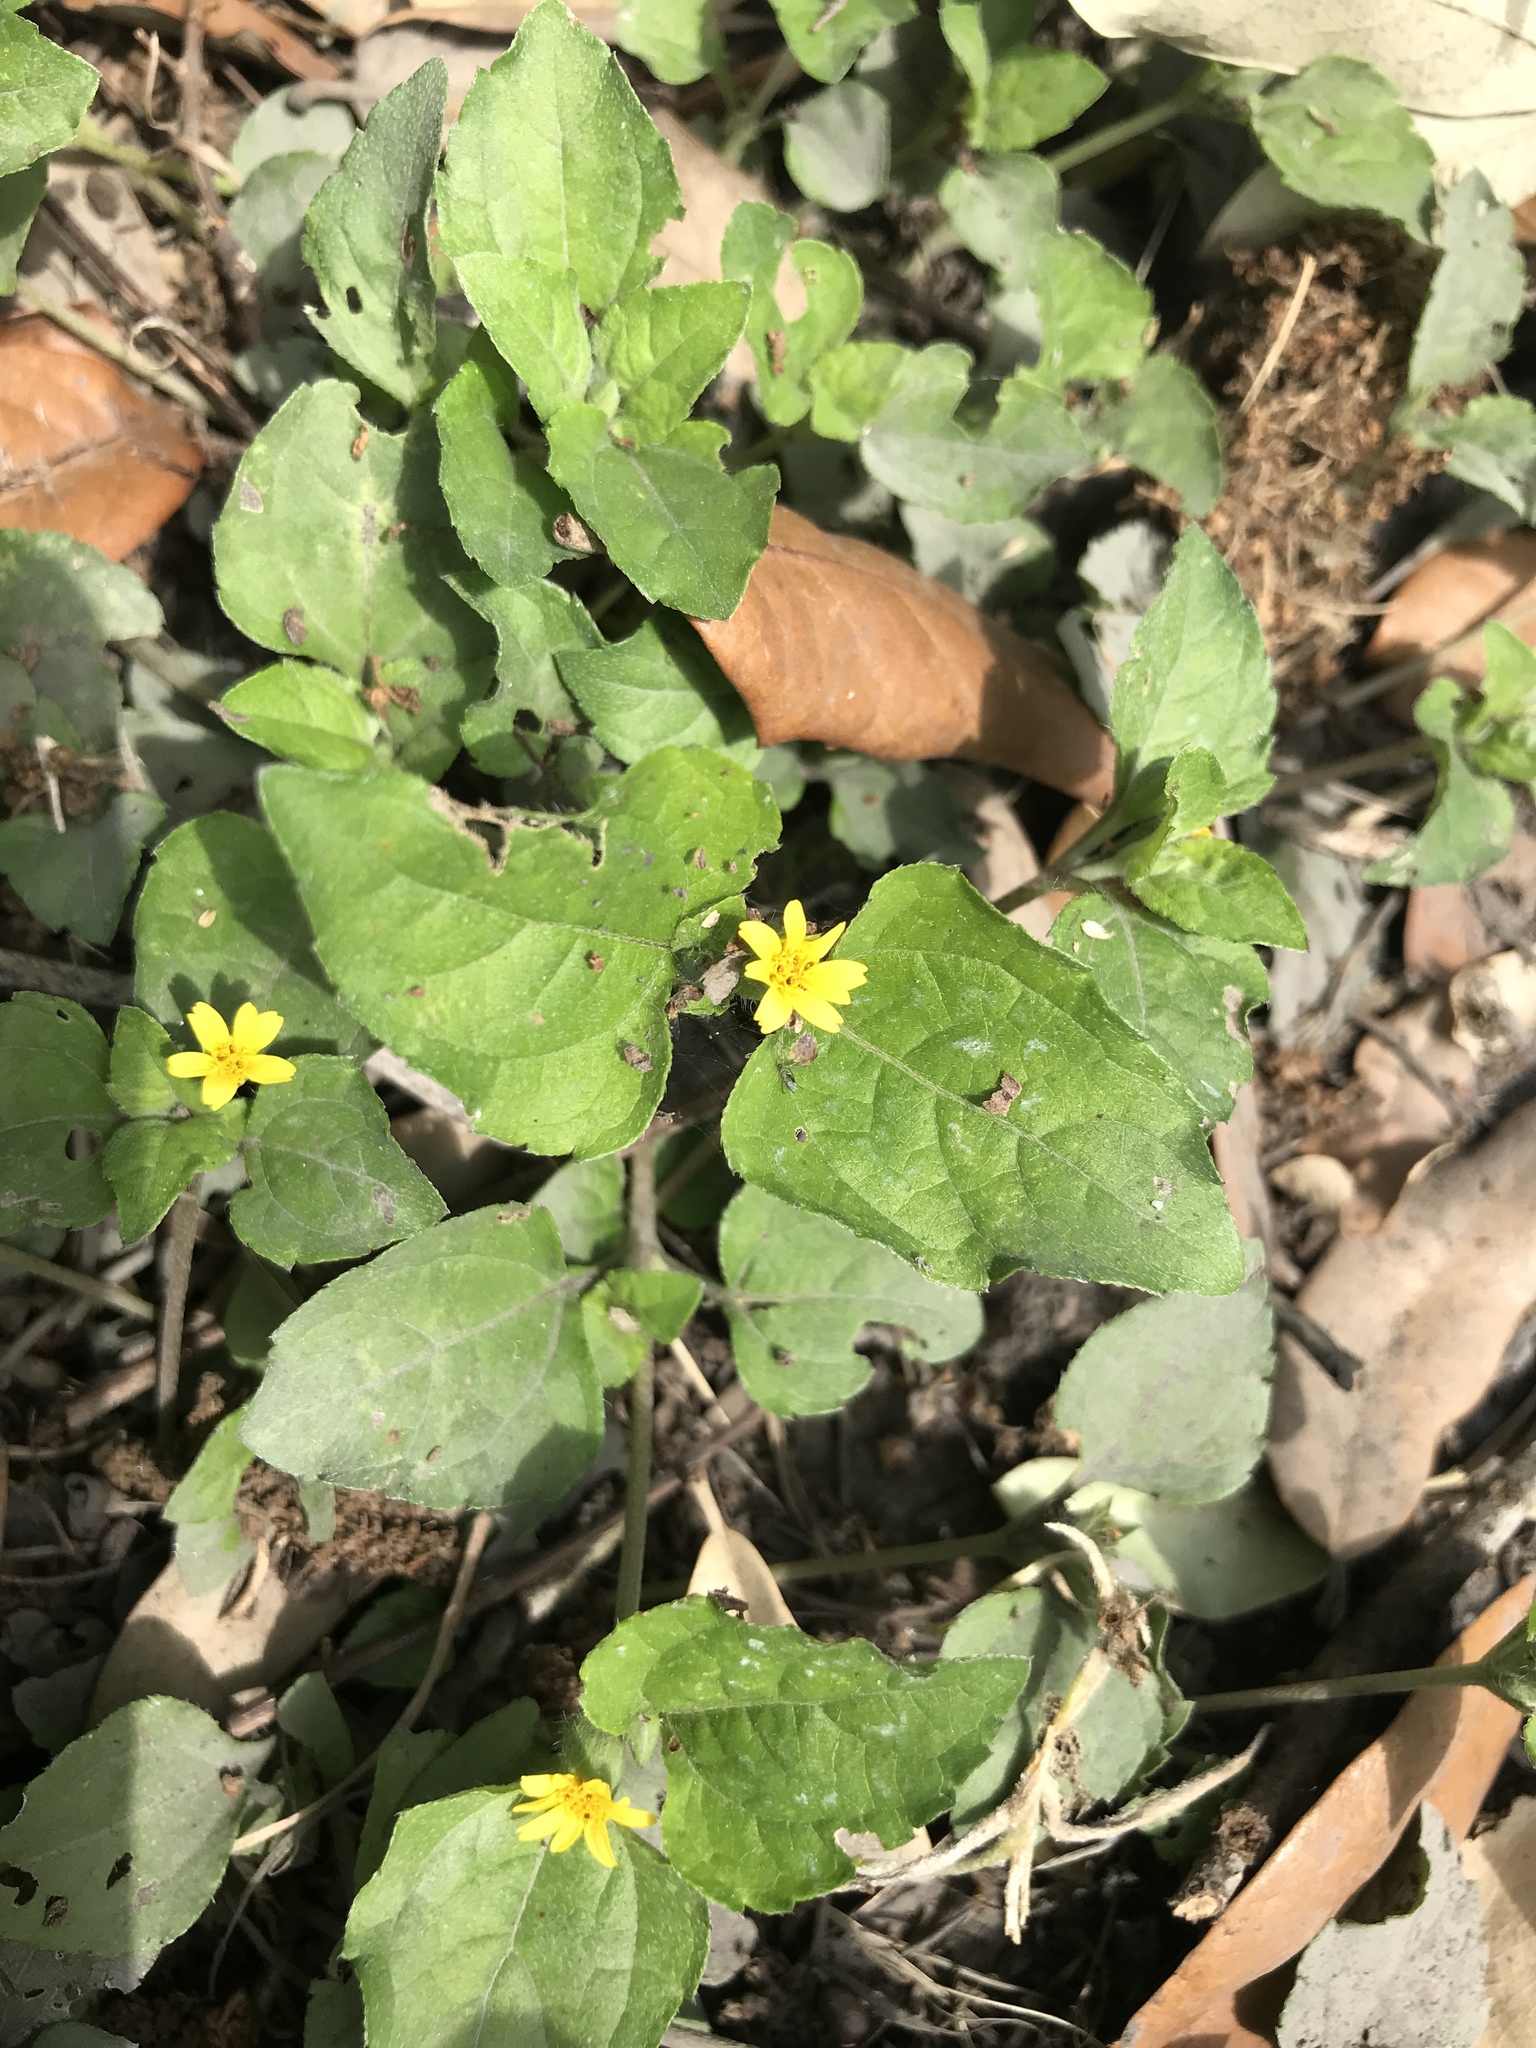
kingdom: Plantae
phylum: Tracheophyta
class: Magnoliopsida
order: Asterales
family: Asteraceae
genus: Calyptocarpus
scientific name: Calyptocarpus vialis
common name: Straggler daisy
